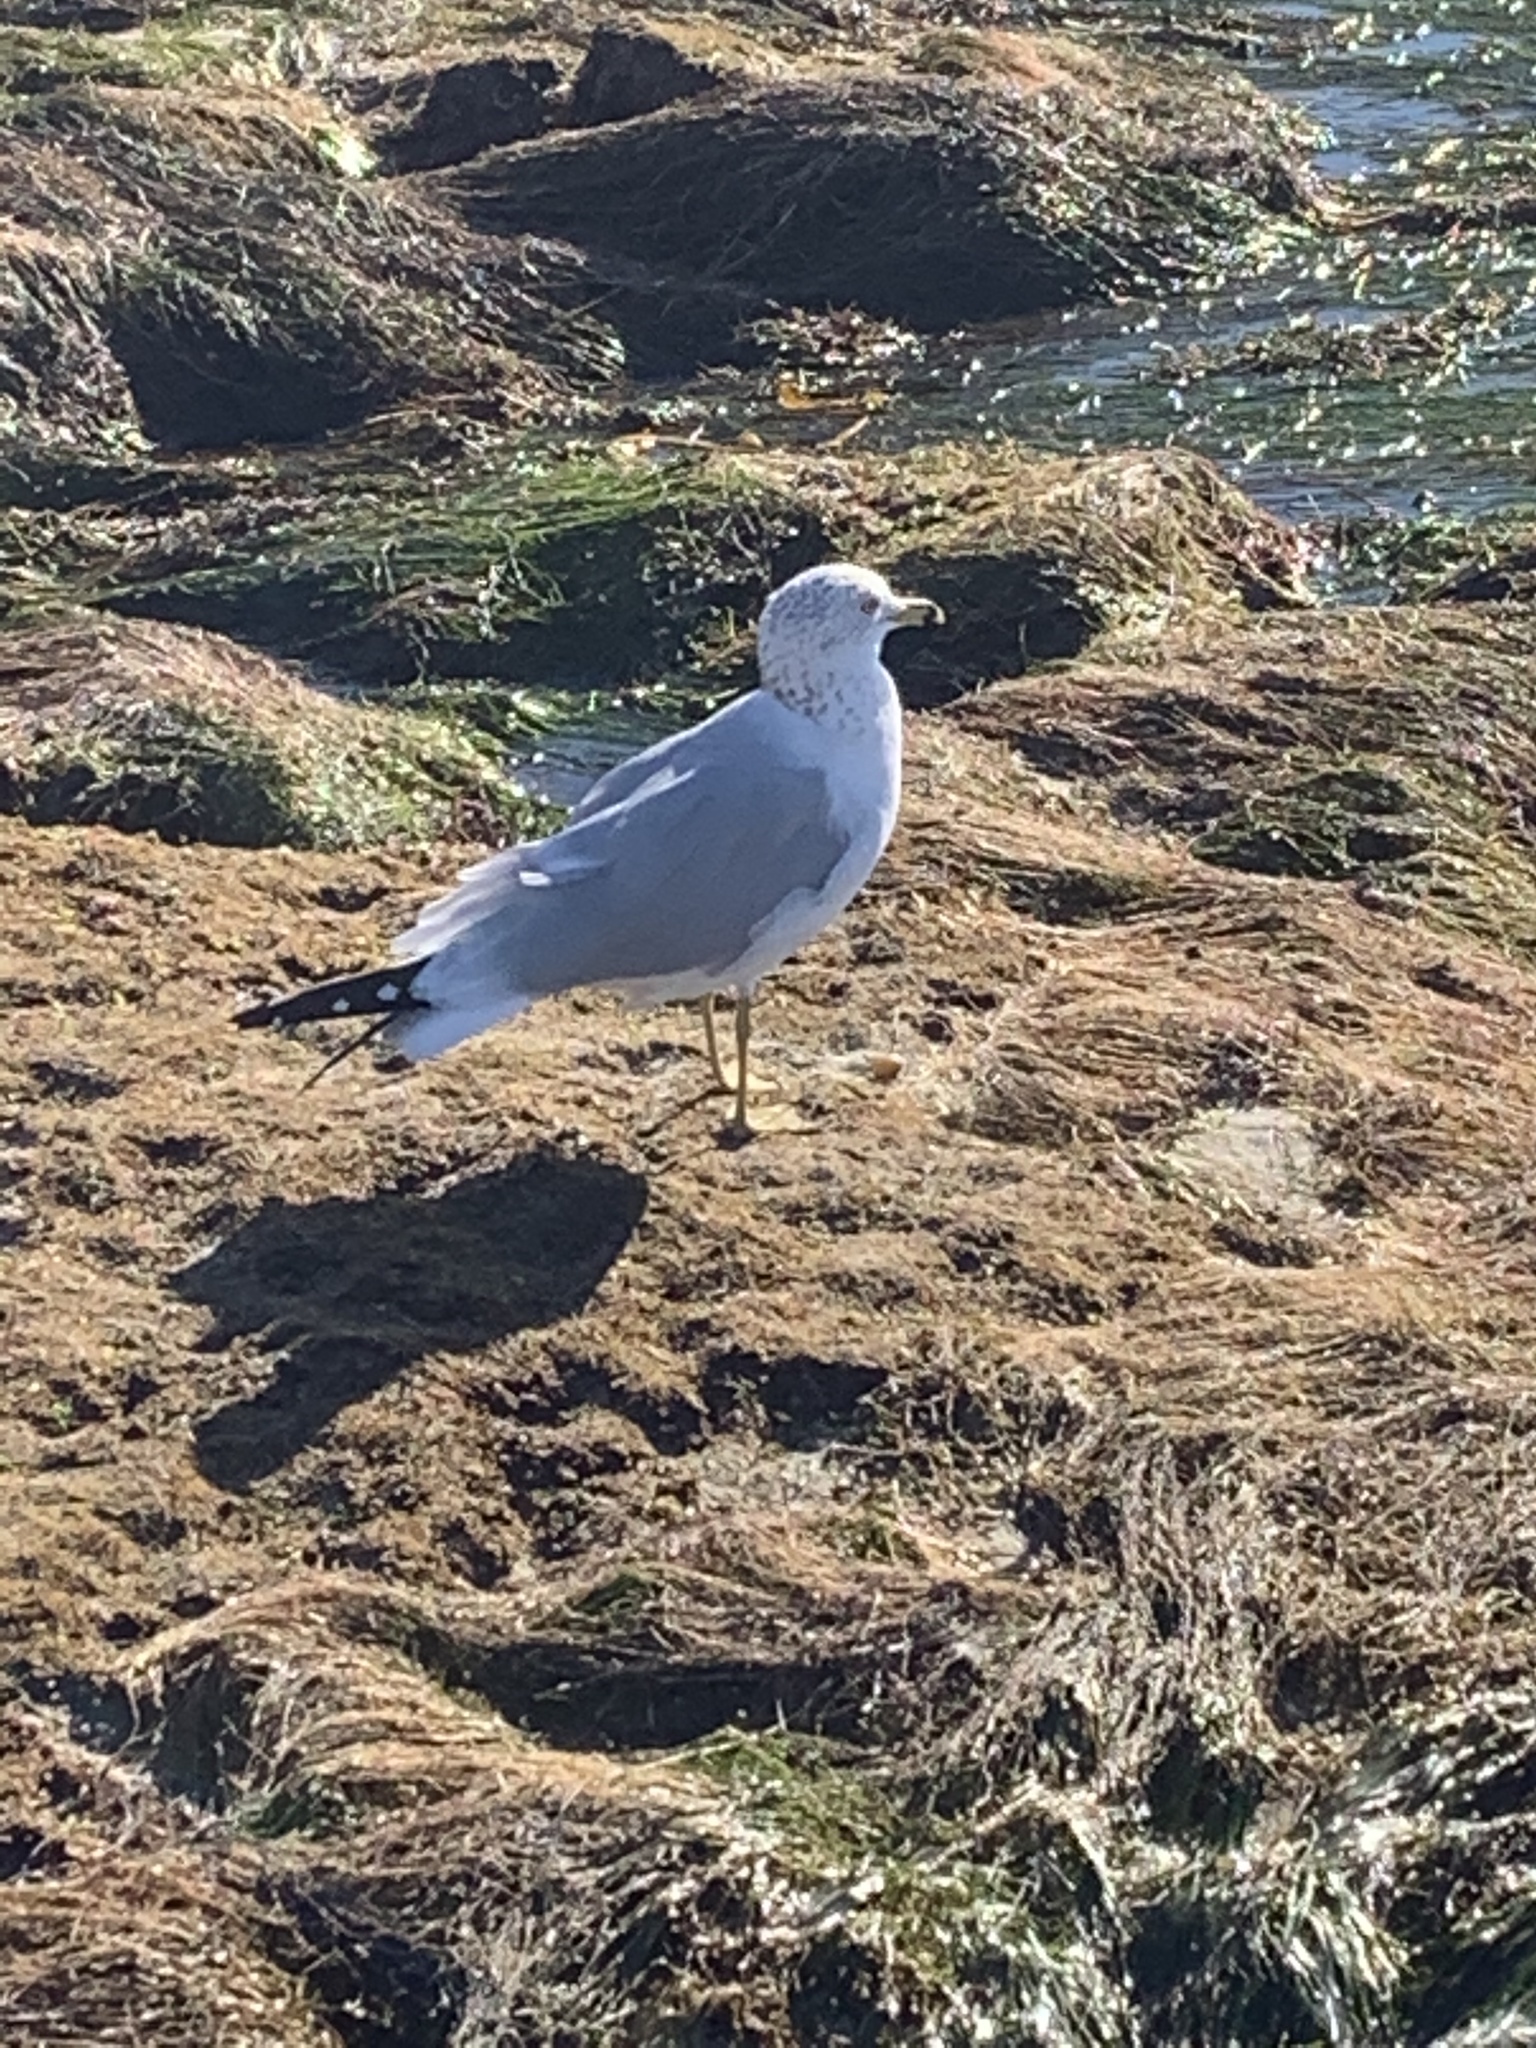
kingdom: Animalia
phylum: Chordata
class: Aves
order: Charadriiformes
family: Laridae
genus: Larus
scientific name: Larus delawarensis
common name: Ring-billed gull
